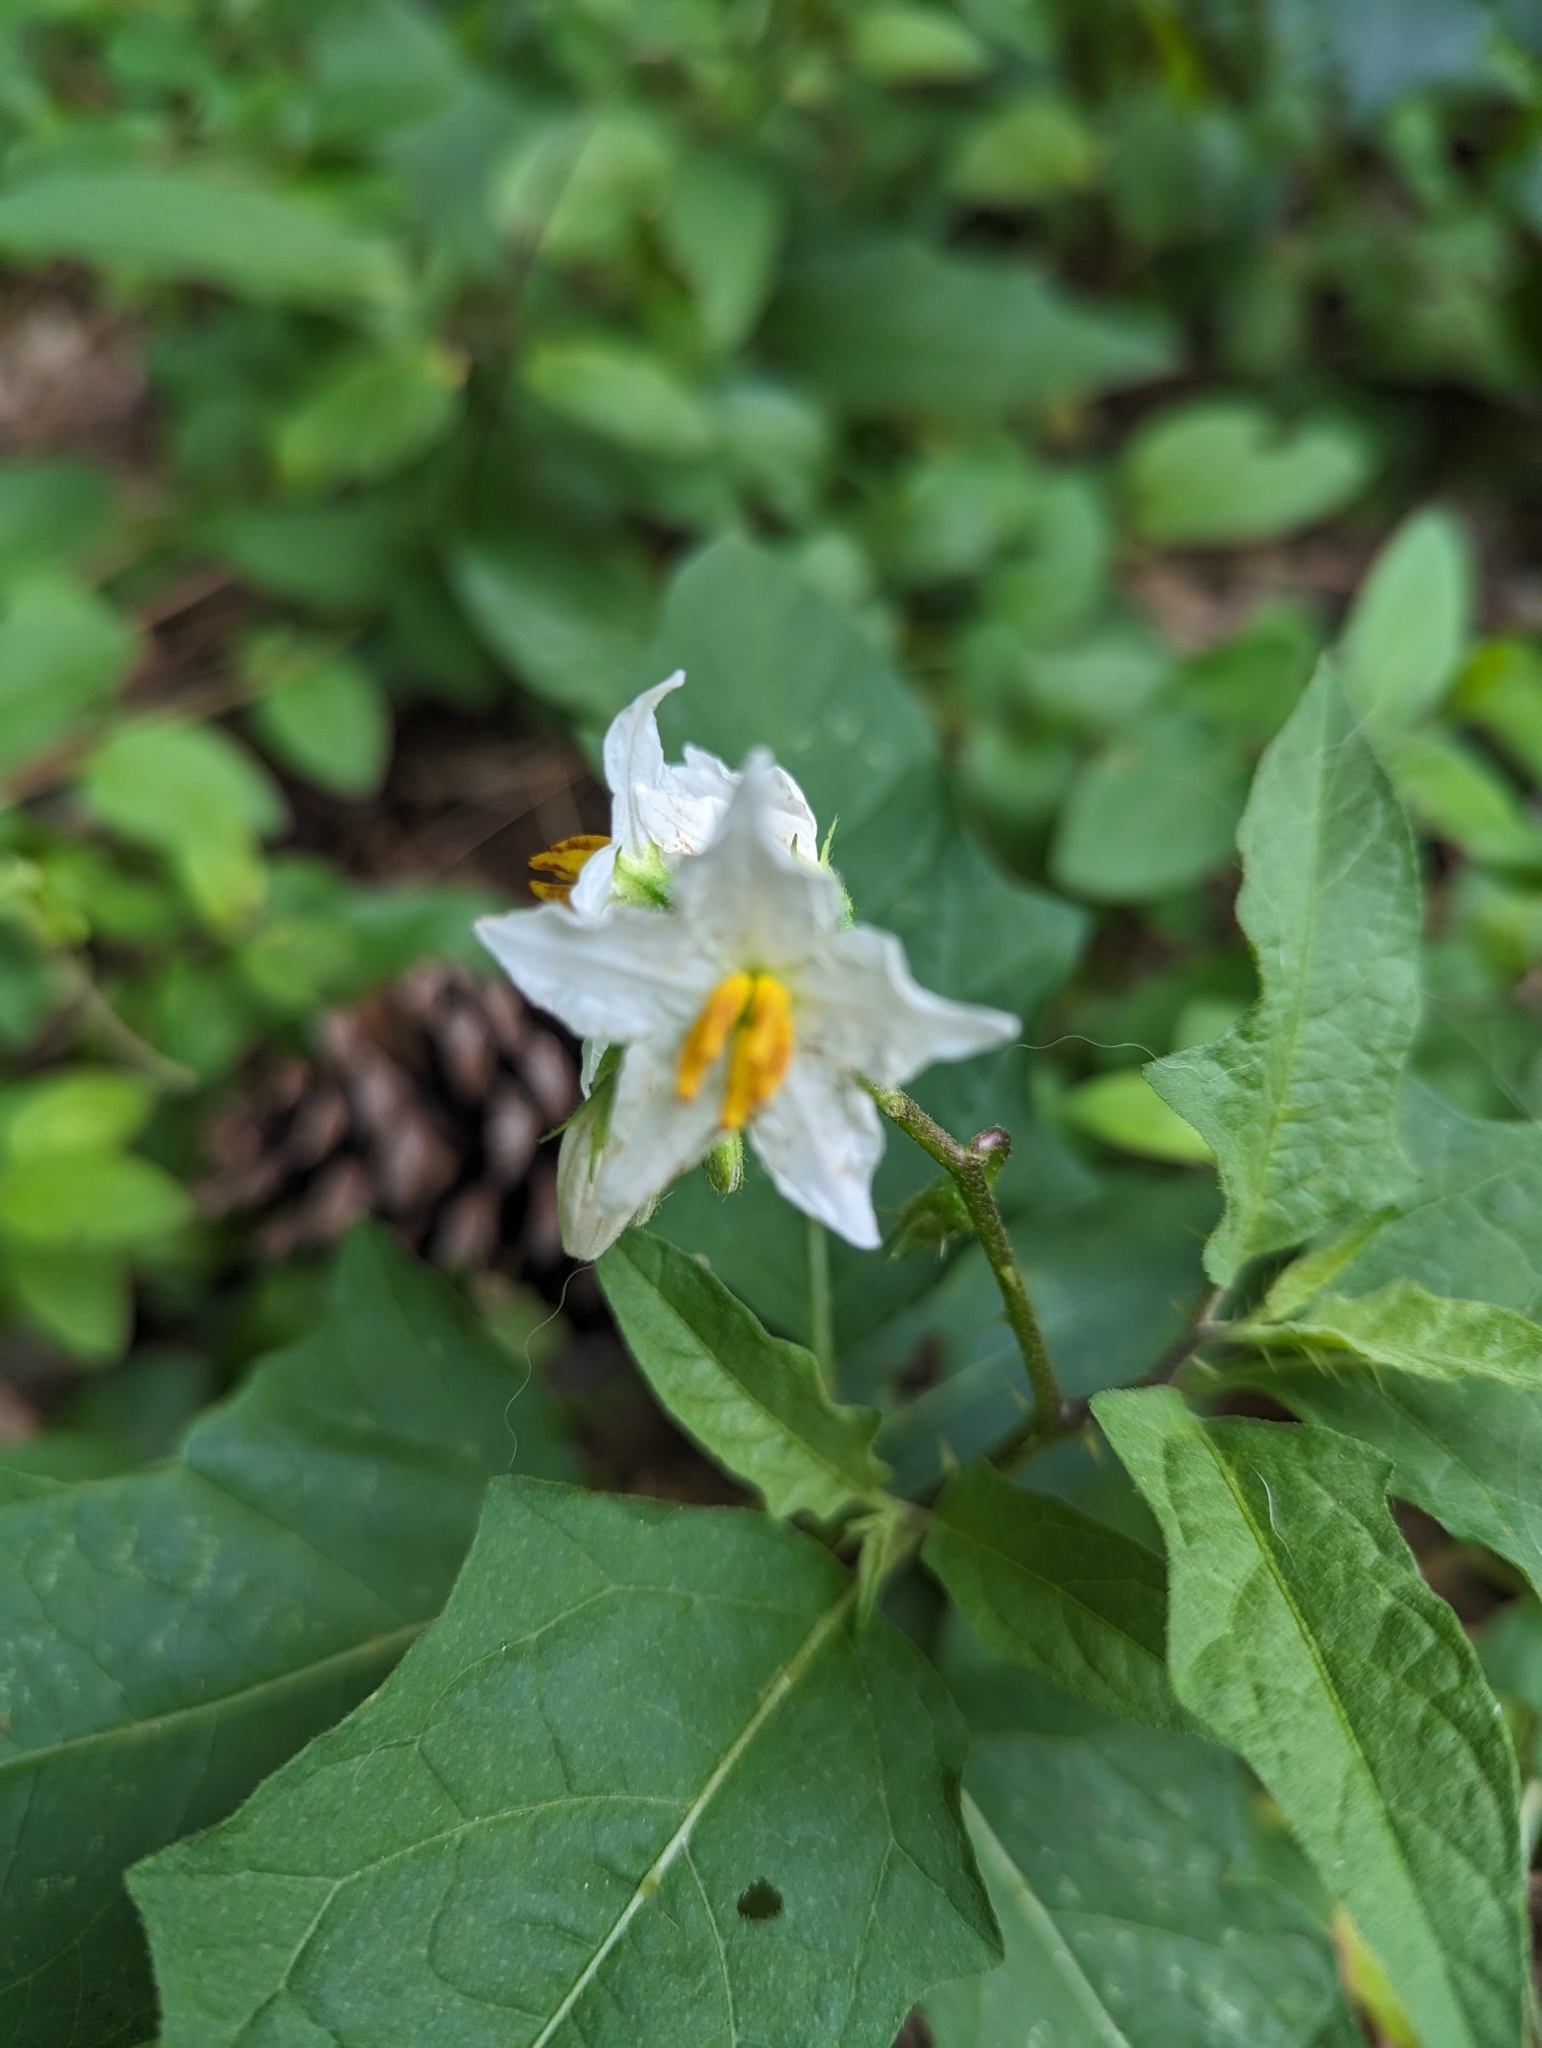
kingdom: Plantae
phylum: Tracheophyta
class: Magnoliopsida
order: Solanales
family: Solanaceae
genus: Solanum
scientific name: Solanum carolinense
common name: Horse-nettle
